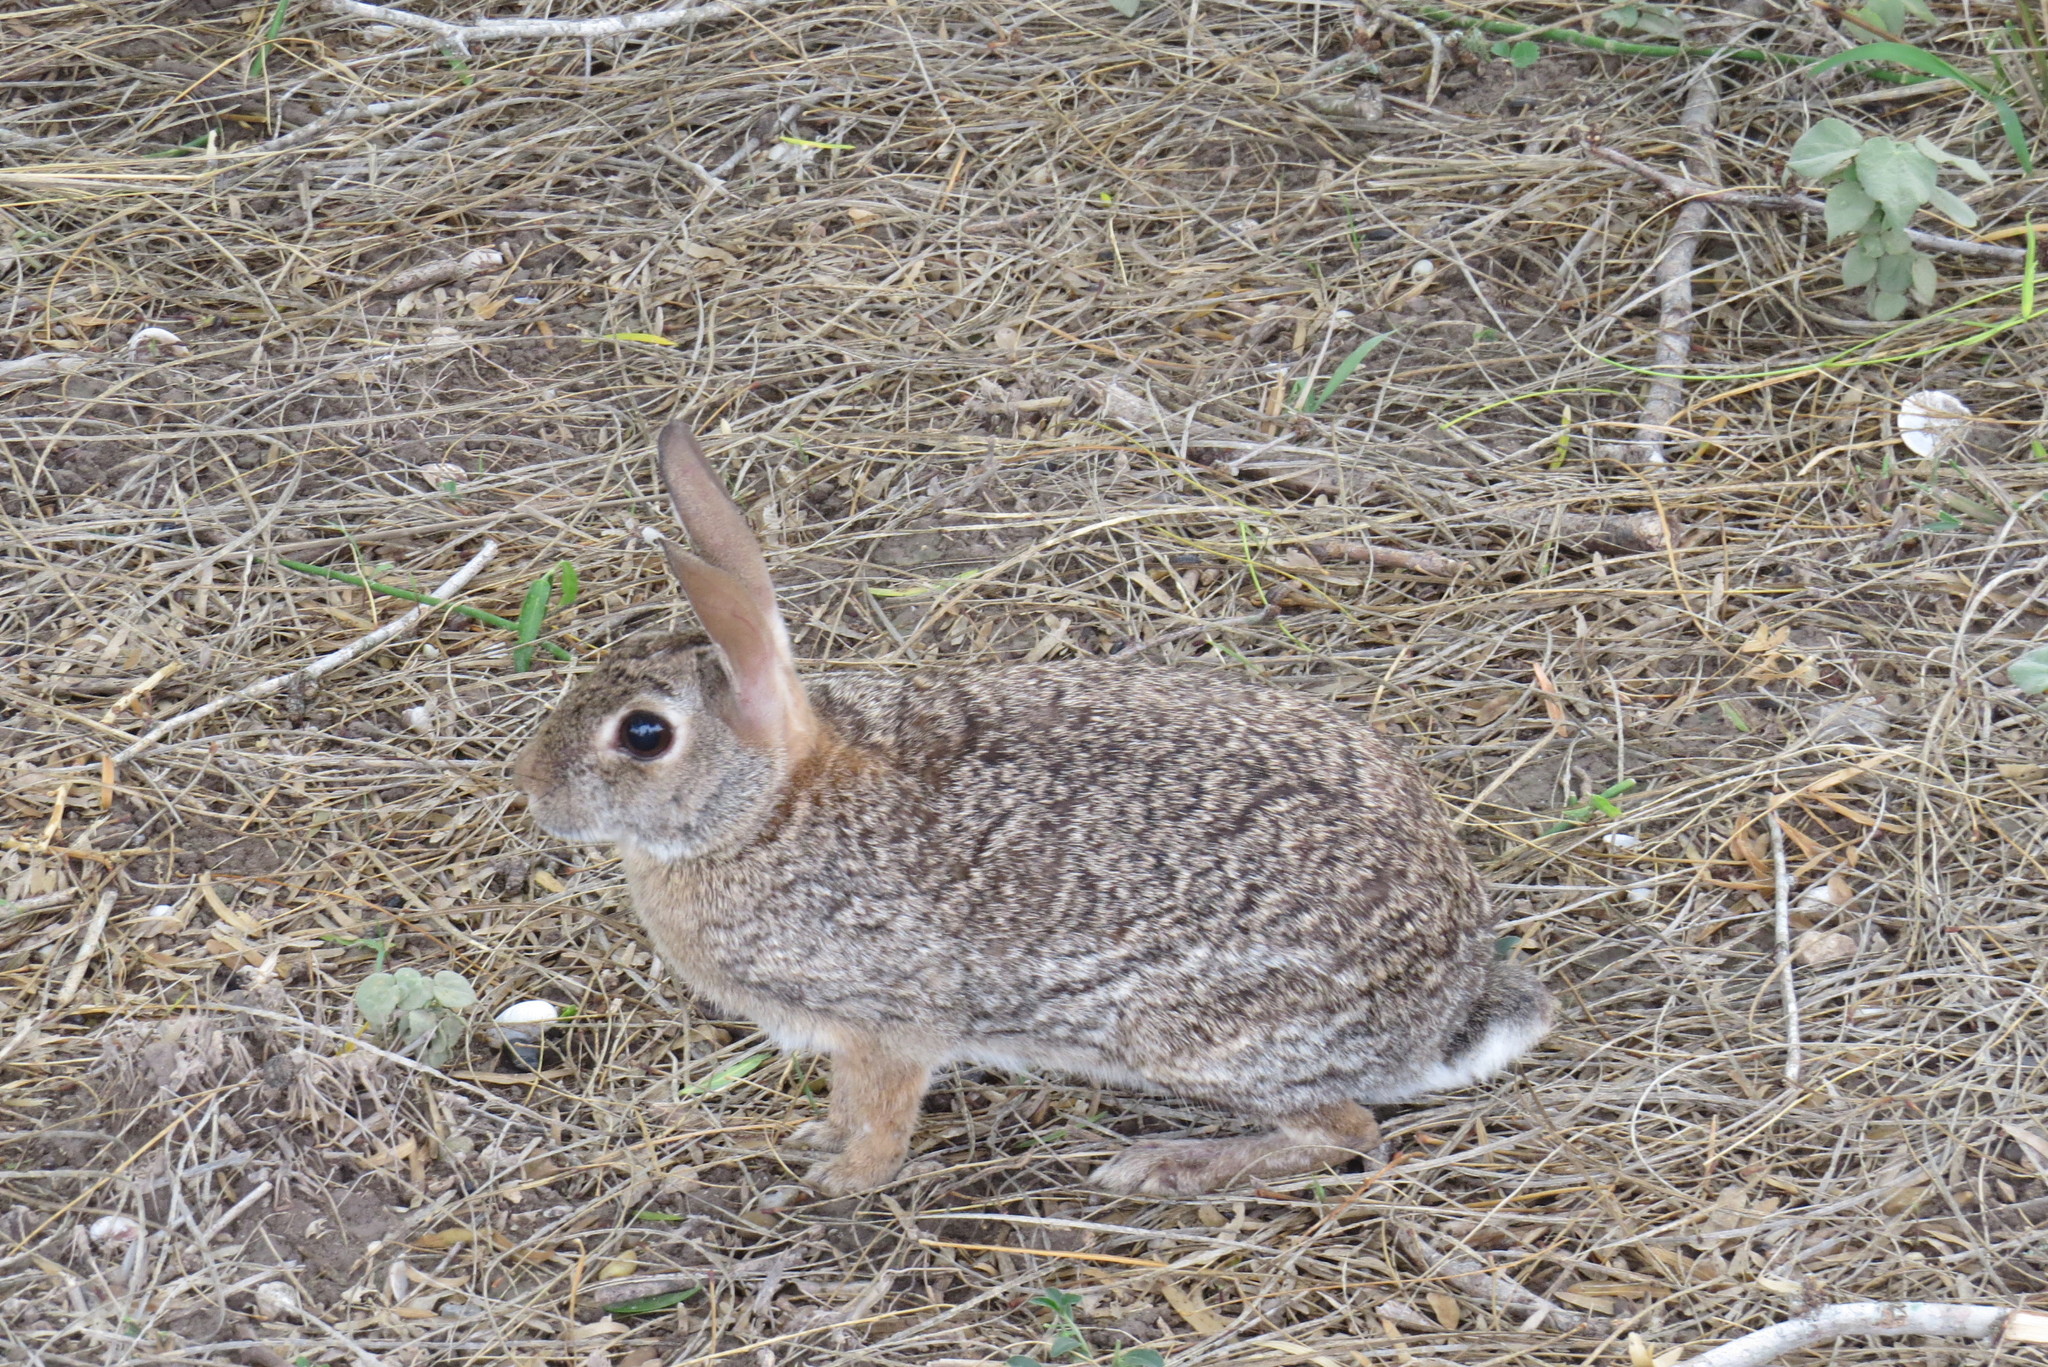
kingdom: Animalia
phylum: Chordata
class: Mammalia
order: Lagomorpha
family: Leporidae
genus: Sylvilagus
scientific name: Sylvilagus floridanus
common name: Eastern cottontail
